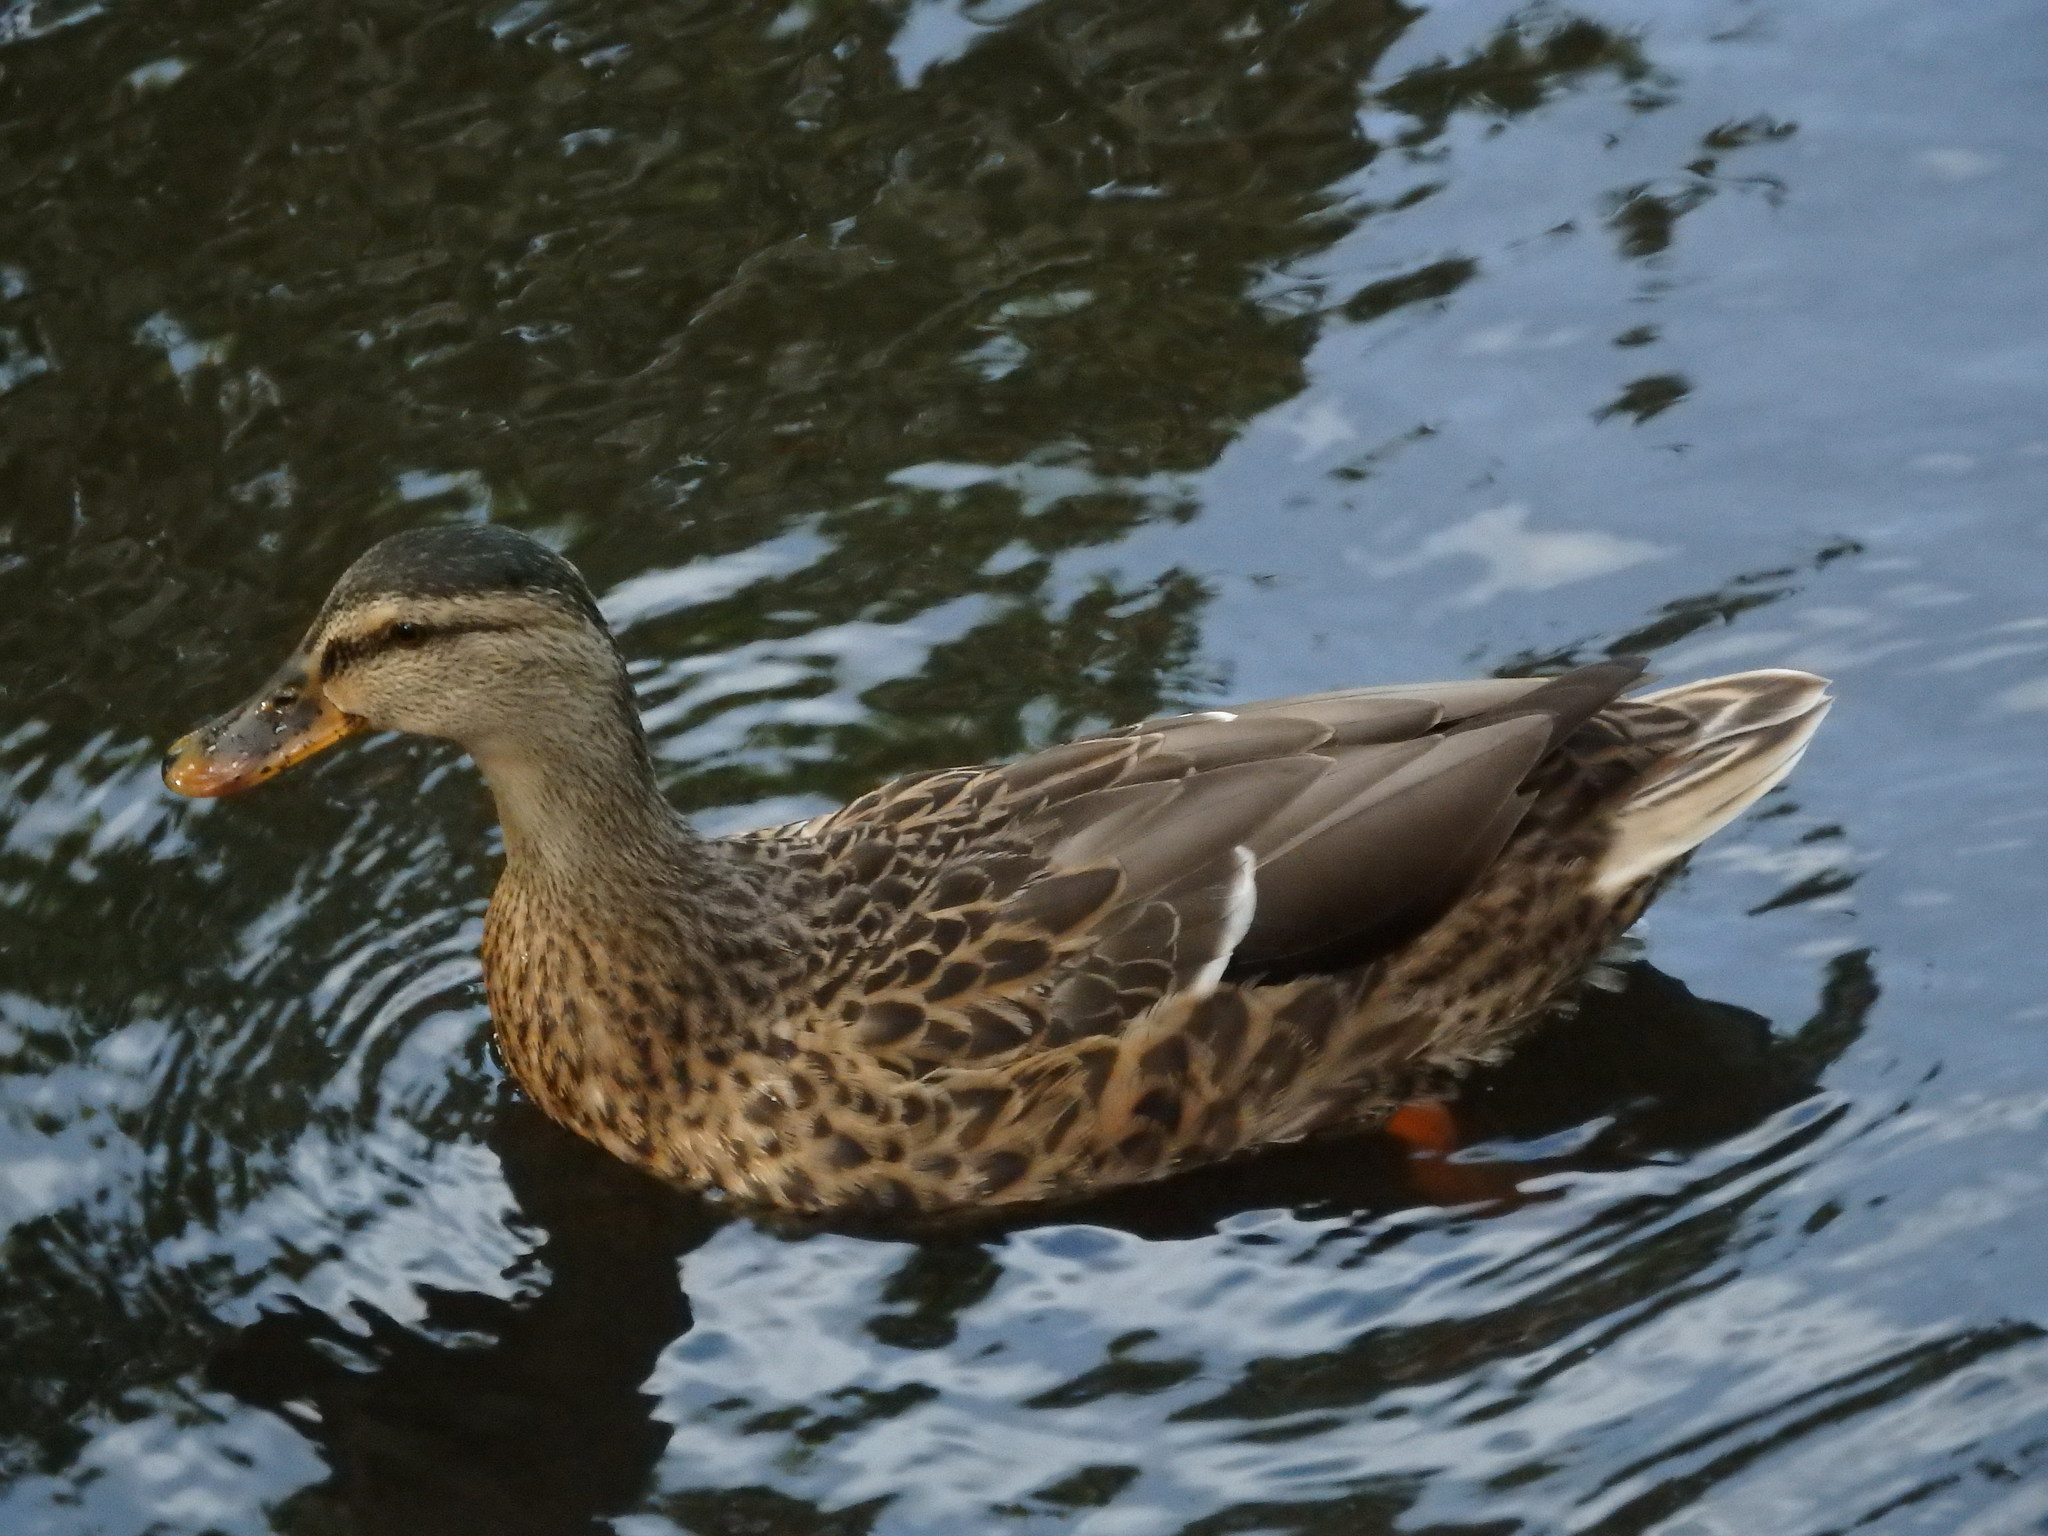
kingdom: Animalia
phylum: Chordata
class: Aves
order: Anseriformes
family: Anatidae
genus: Anas
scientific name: Anas platyrhynchos
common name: Mallard
